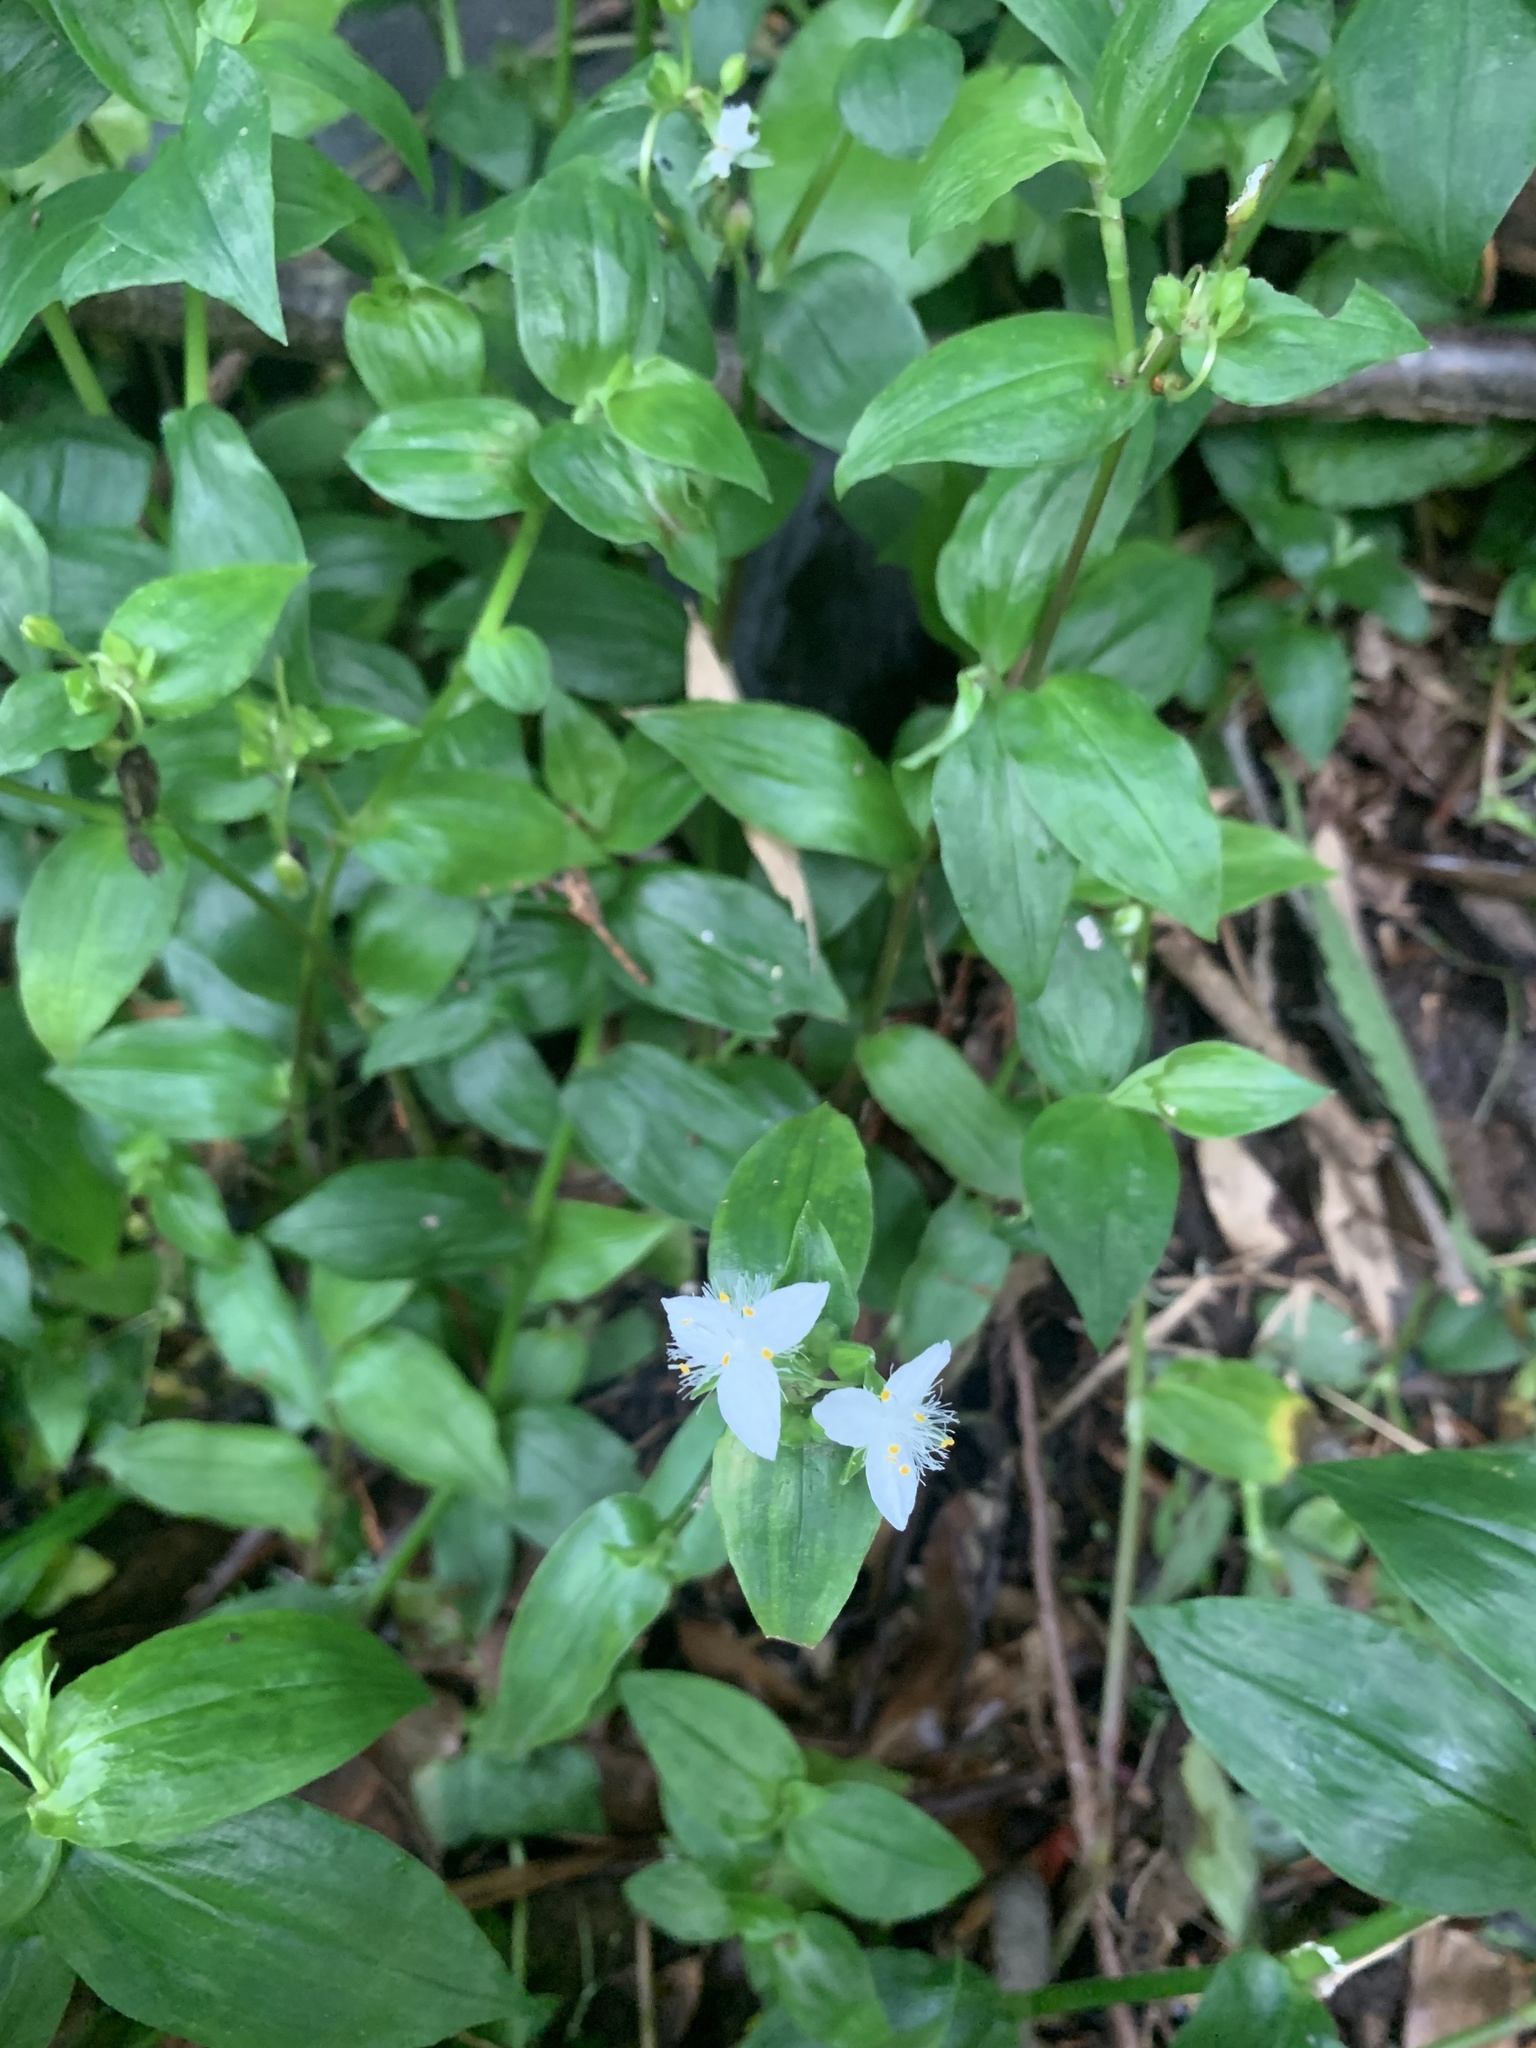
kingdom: Plantae
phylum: Tracheophyta
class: Liliopsida
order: Commelinales
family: Commelinaceae
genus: Tradescantia
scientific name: Tradescantia fluminensis
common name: Wandering-jew
